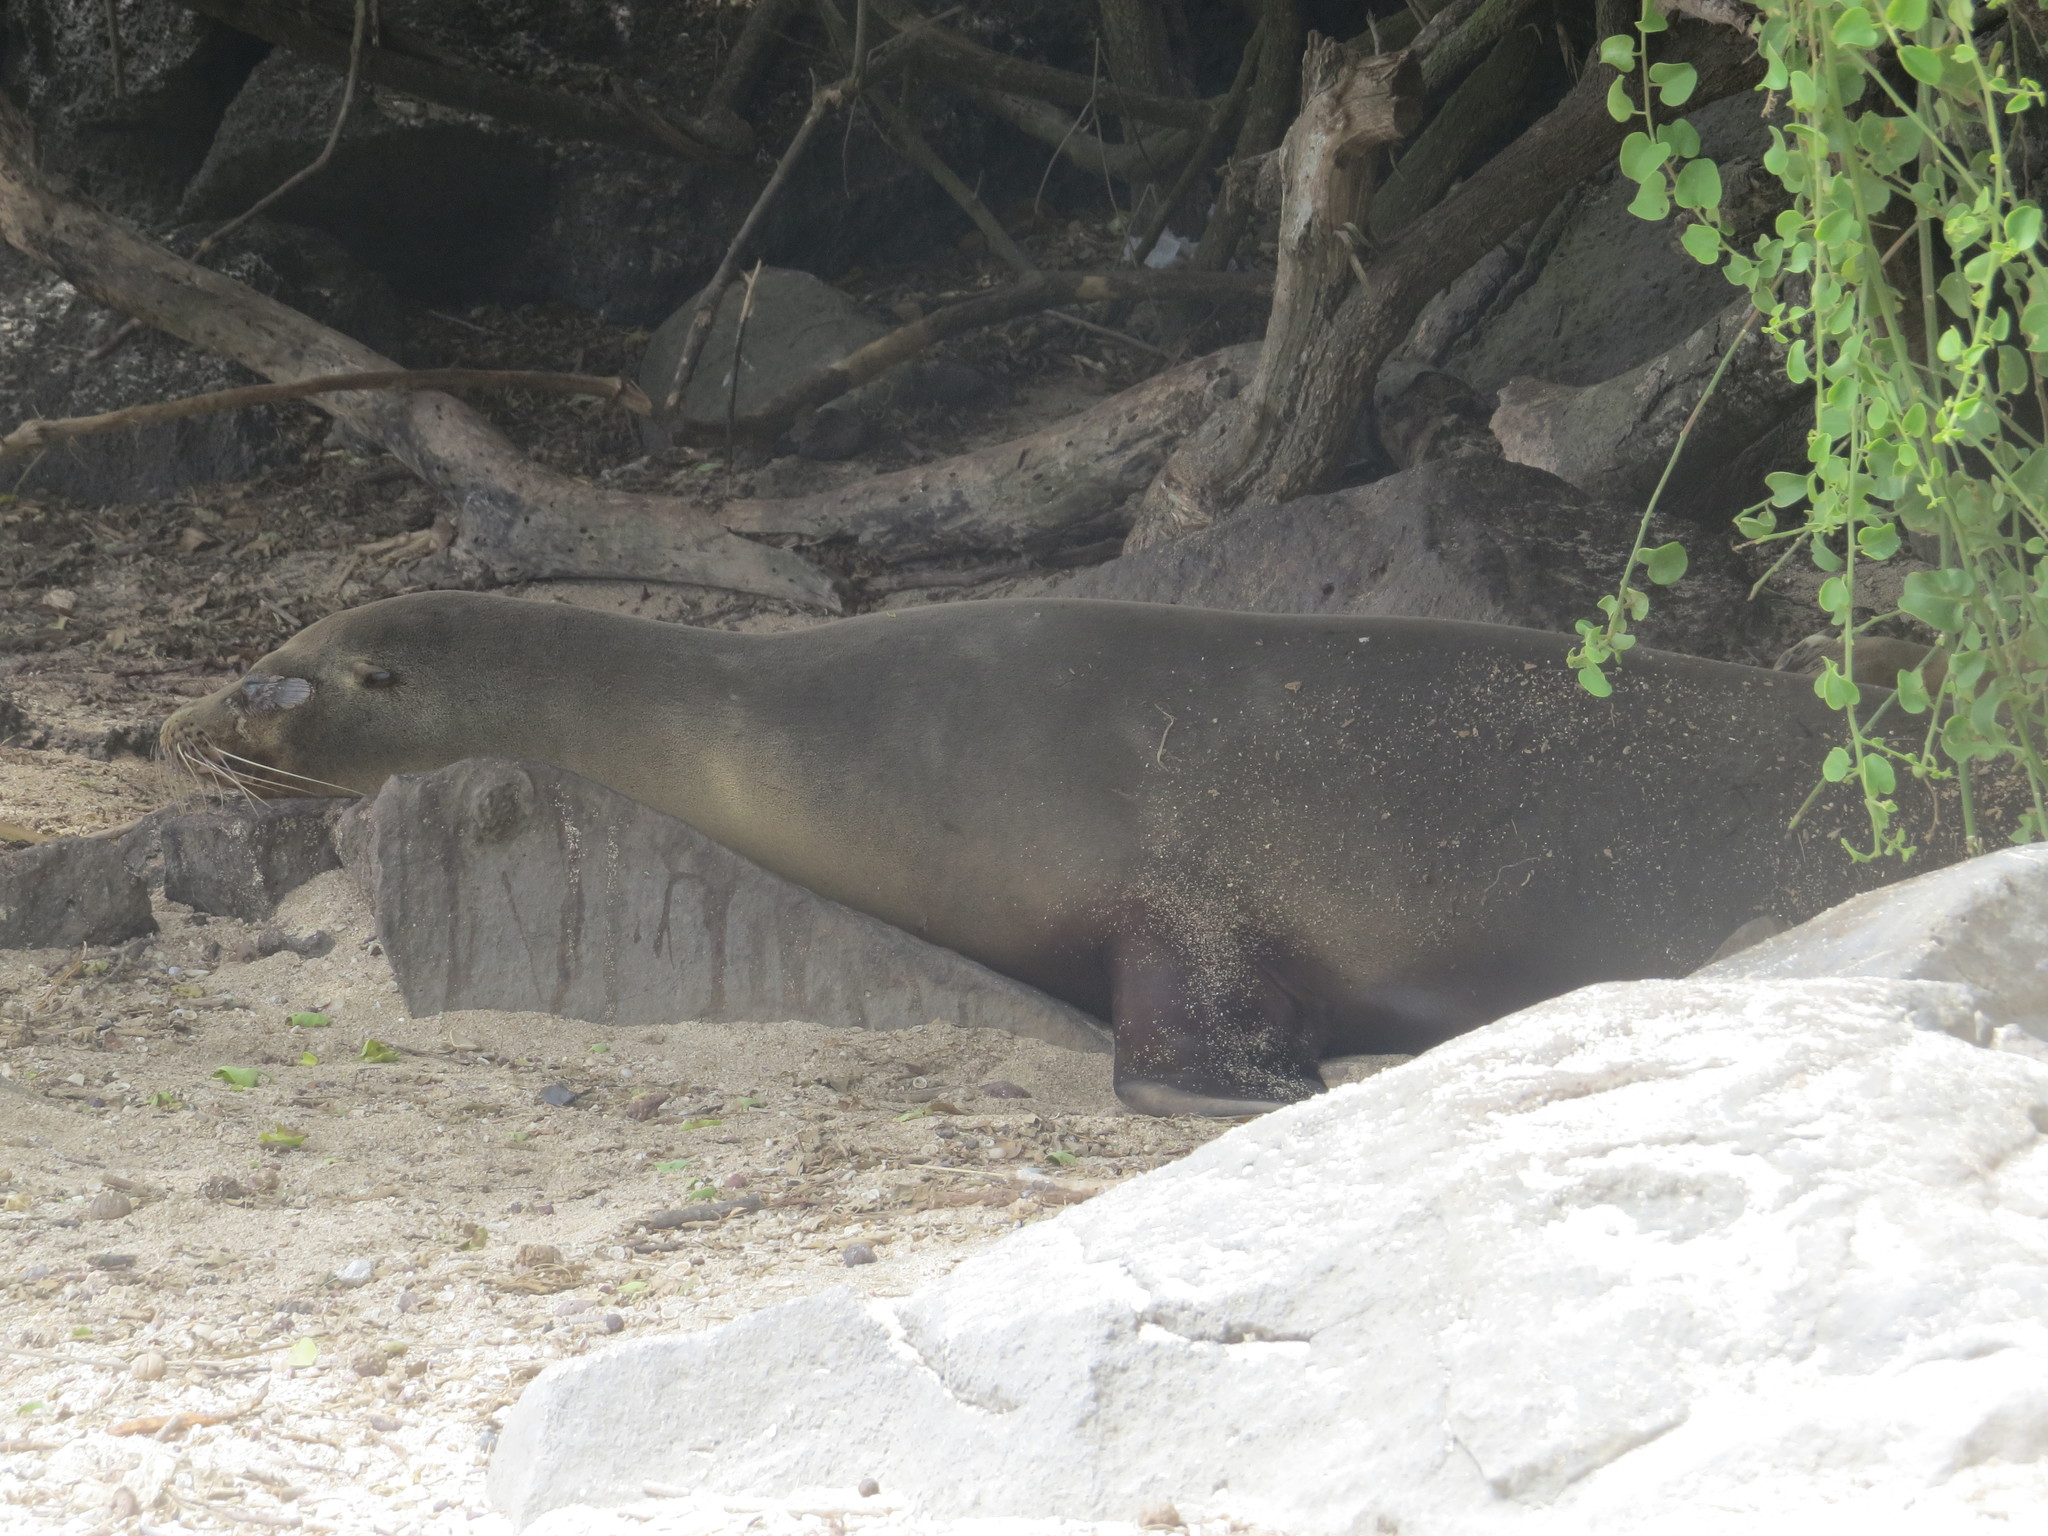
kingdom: Animalia
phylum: Chordata
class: Mammalia
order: Carnivora
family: Otariidae
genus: Zalophus
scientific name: Zalophus wollebaeki
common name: Galapagos sea lion
